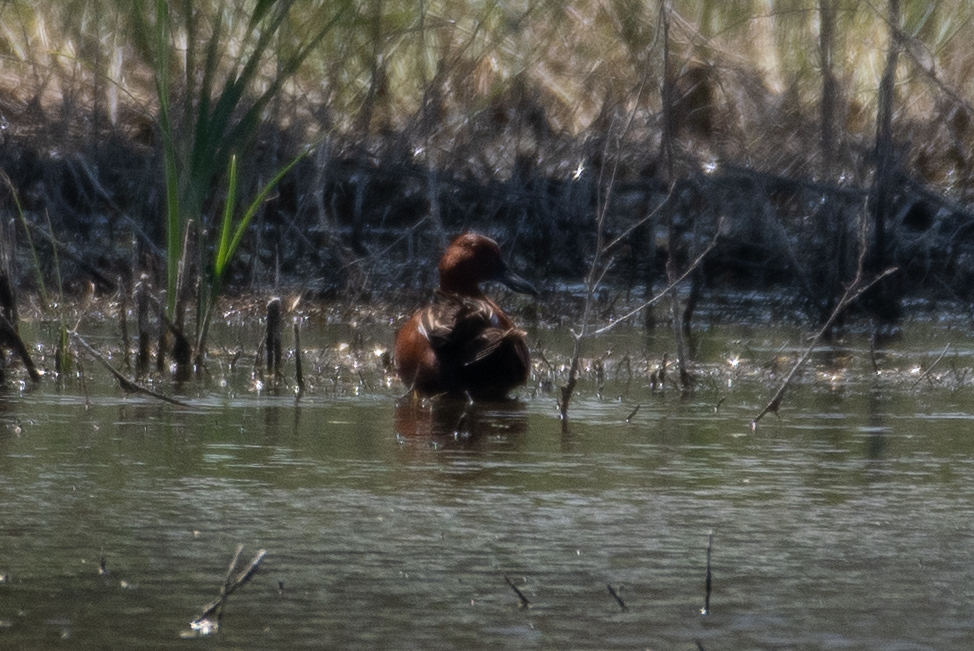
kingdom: Animalia
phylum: Chordata
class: Aves
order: Anseriformes
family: Anatidae
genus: Spatula
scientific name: Spatula cyanoptera
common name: Cinnamon teal
